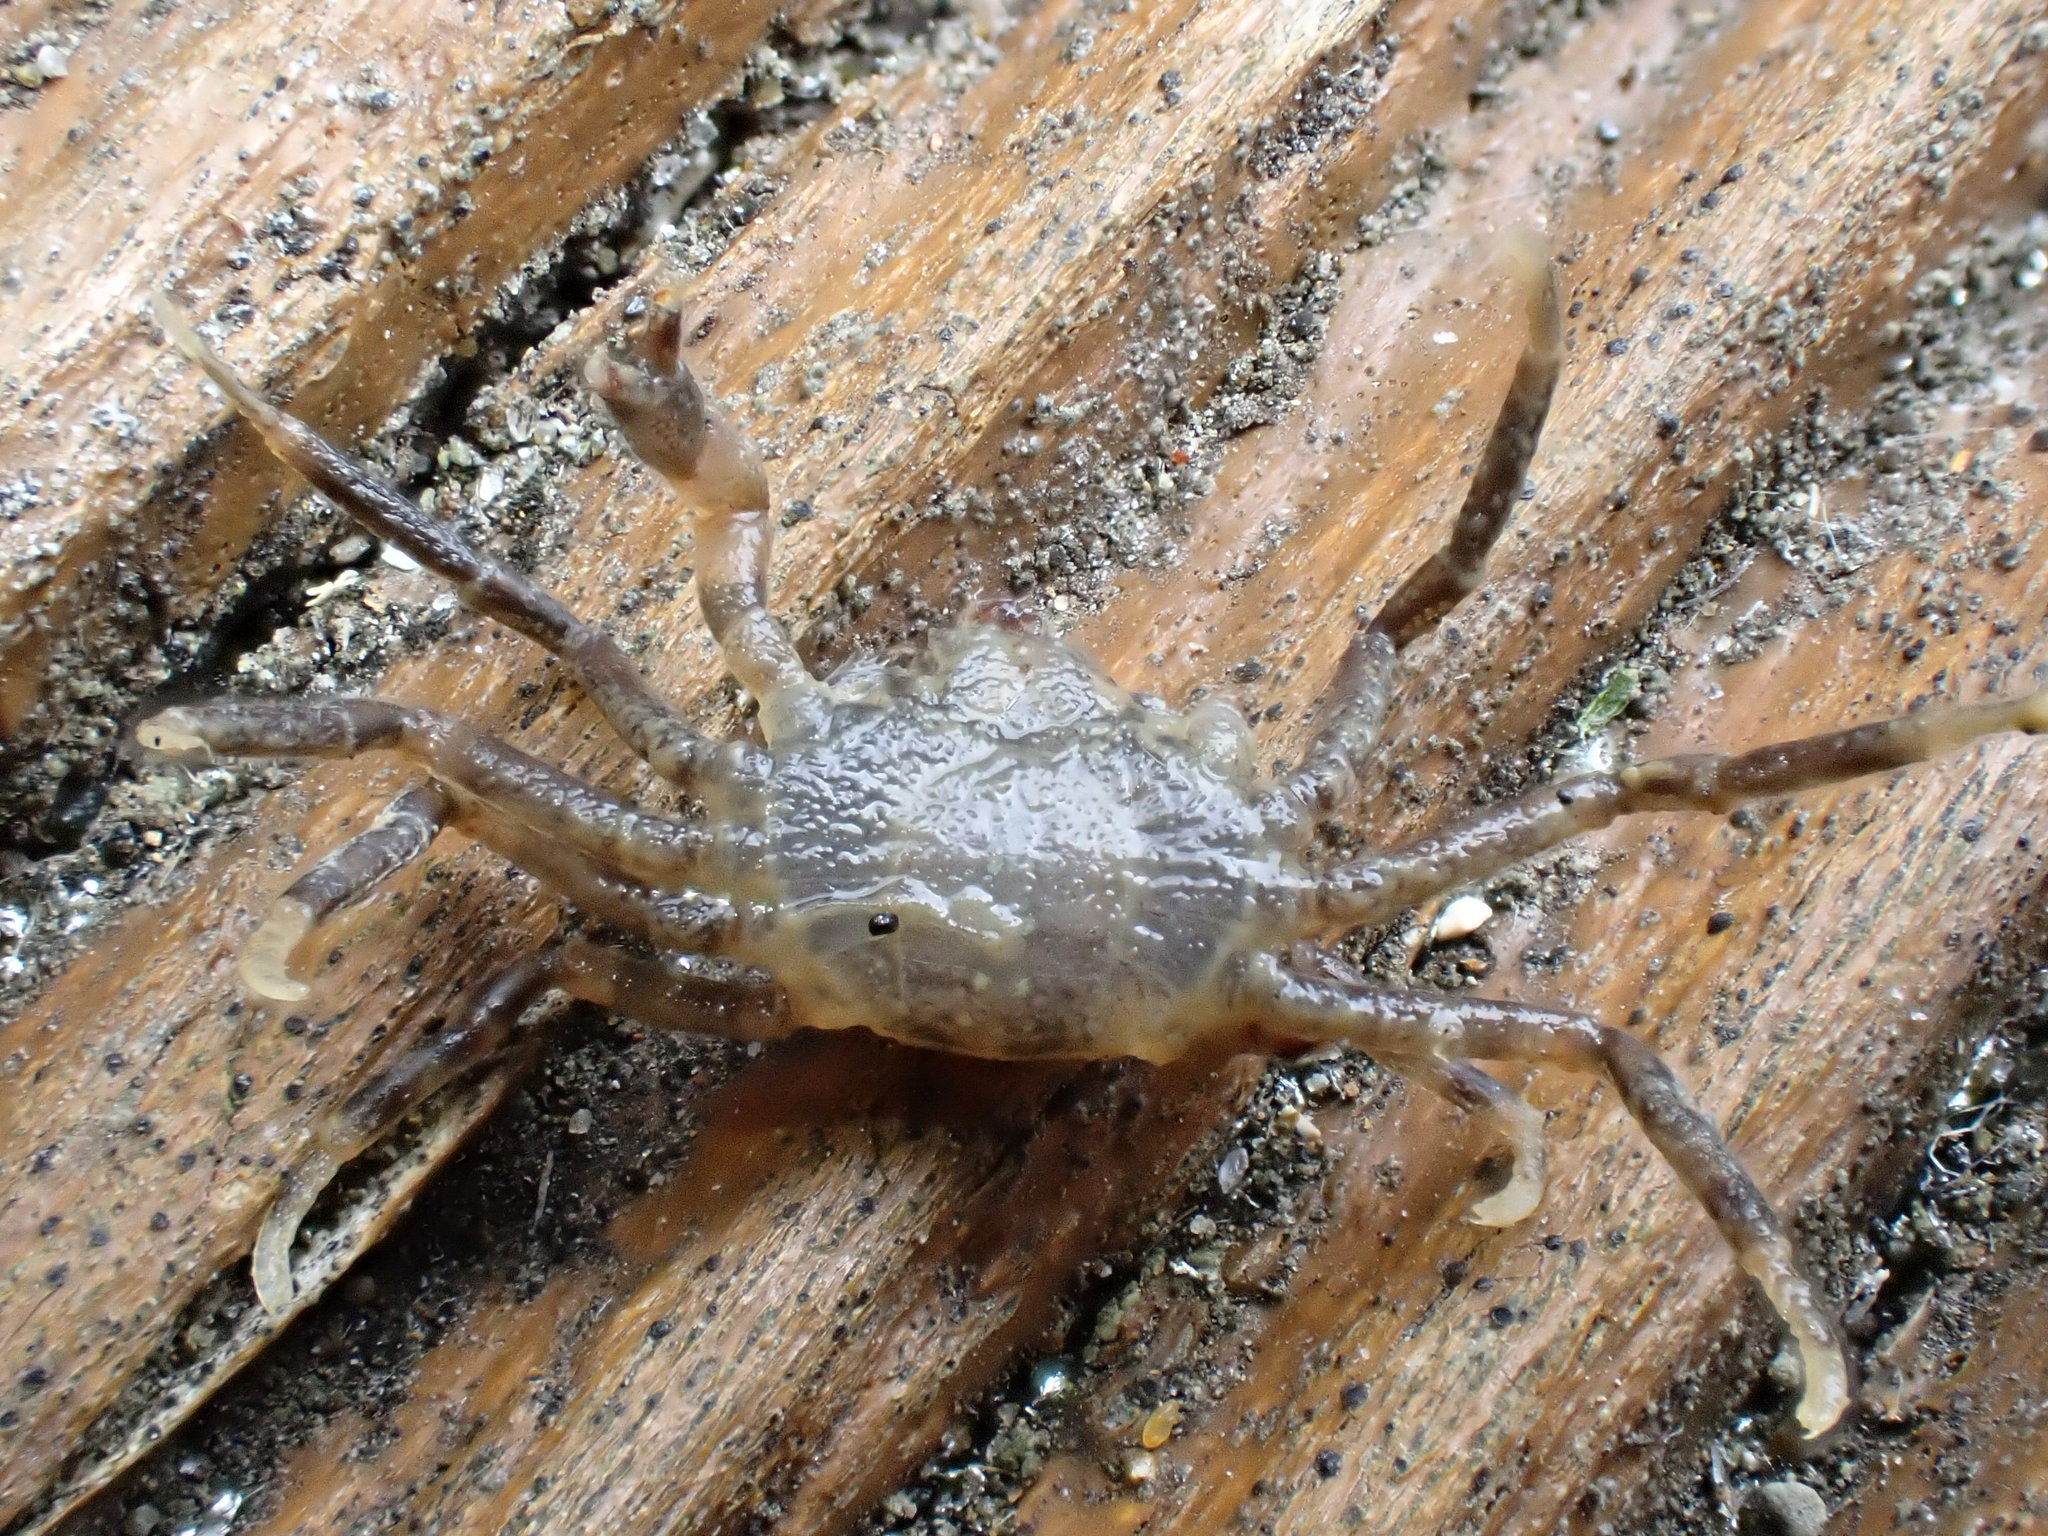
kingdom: Animalia
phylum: Arthropoda
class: Malacostraca
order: Decapoda
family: Hymenosomatidae
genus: Halicarcinus
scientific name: Halicarcinus varius
